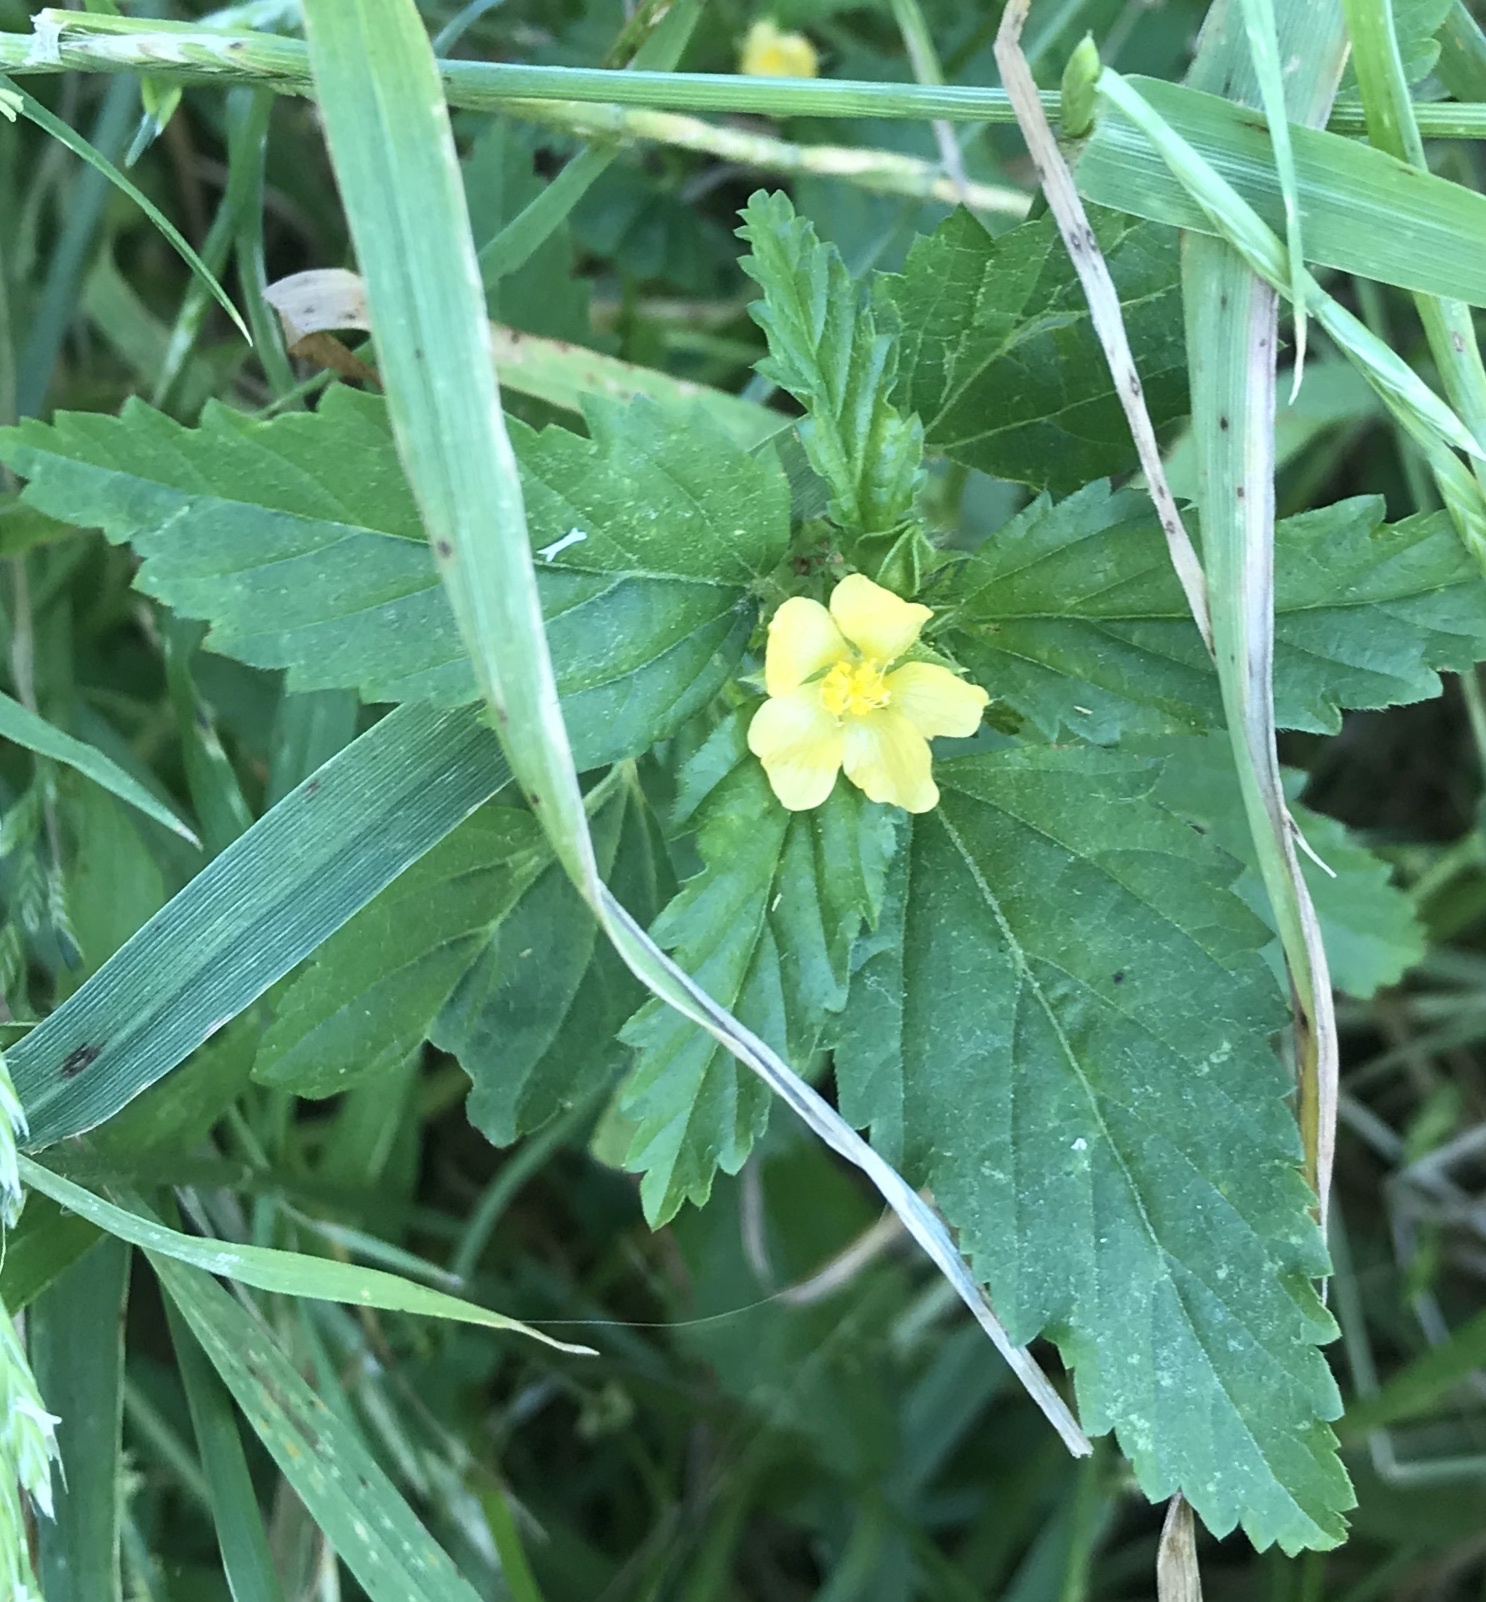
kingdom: Plantae
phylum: Tracheophyta
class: Magnoliopsida
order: Malvales
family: Malvaceae
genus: Malvastrum
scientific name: Malvastrum coromandelianum
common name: Threelobe false mallow
